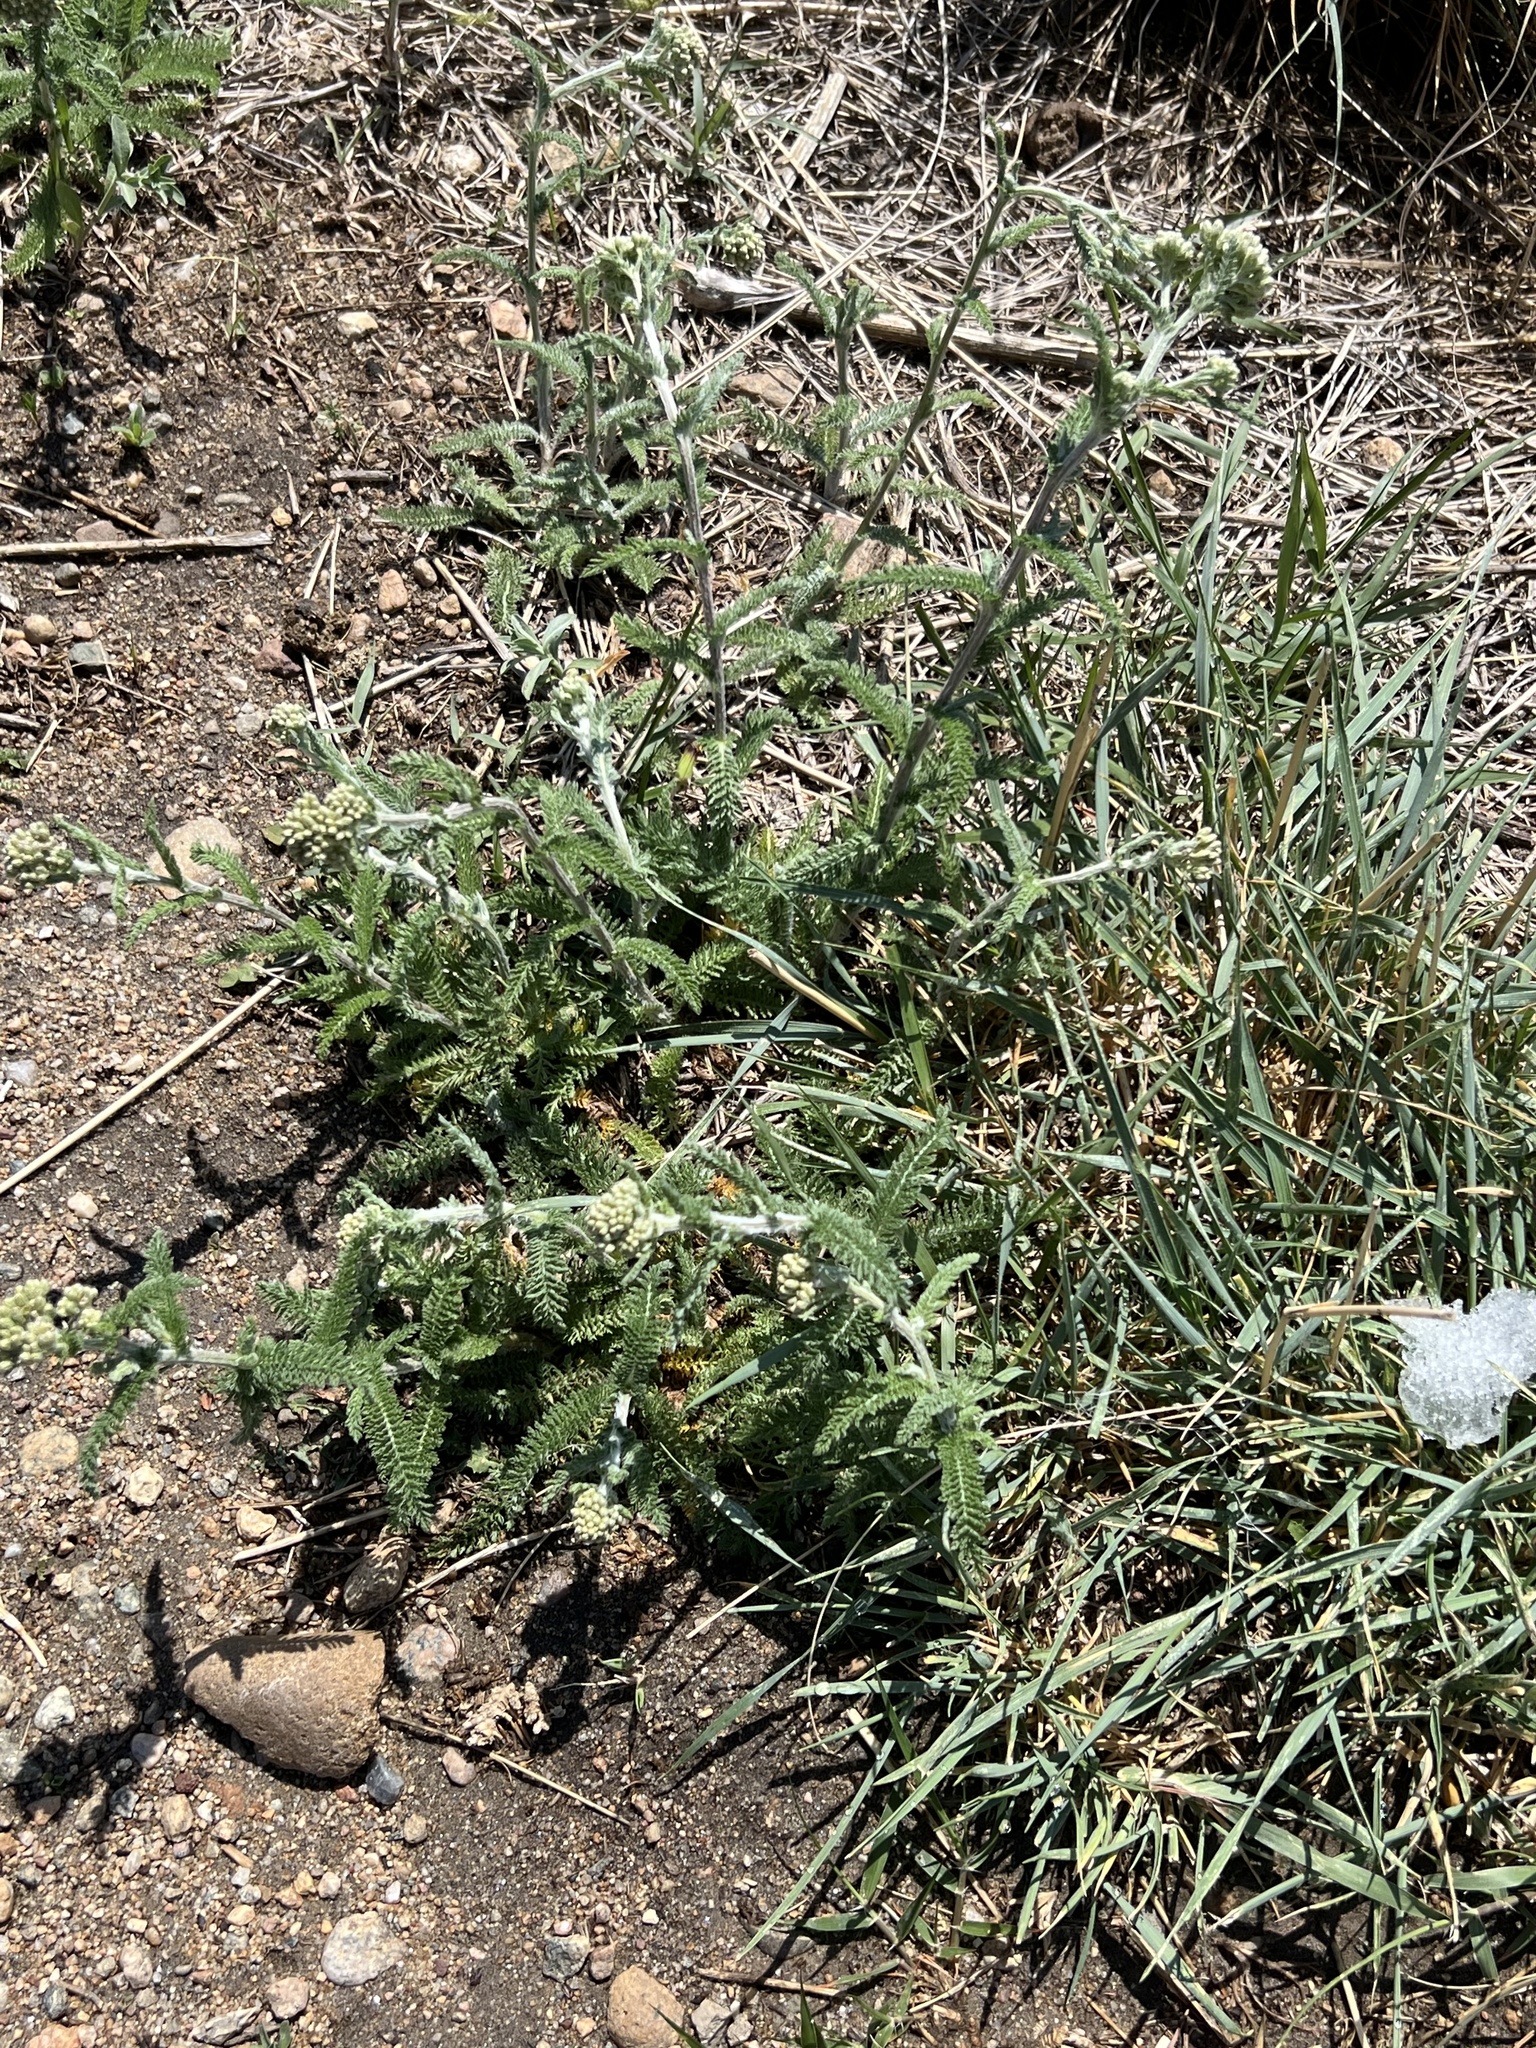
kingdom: Plantae
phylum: Tracheophyta
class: Magnoliopsida
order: Asterales
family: Asteraceae
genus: Achillea
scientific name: Achillea millefolium
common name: Yarrow
